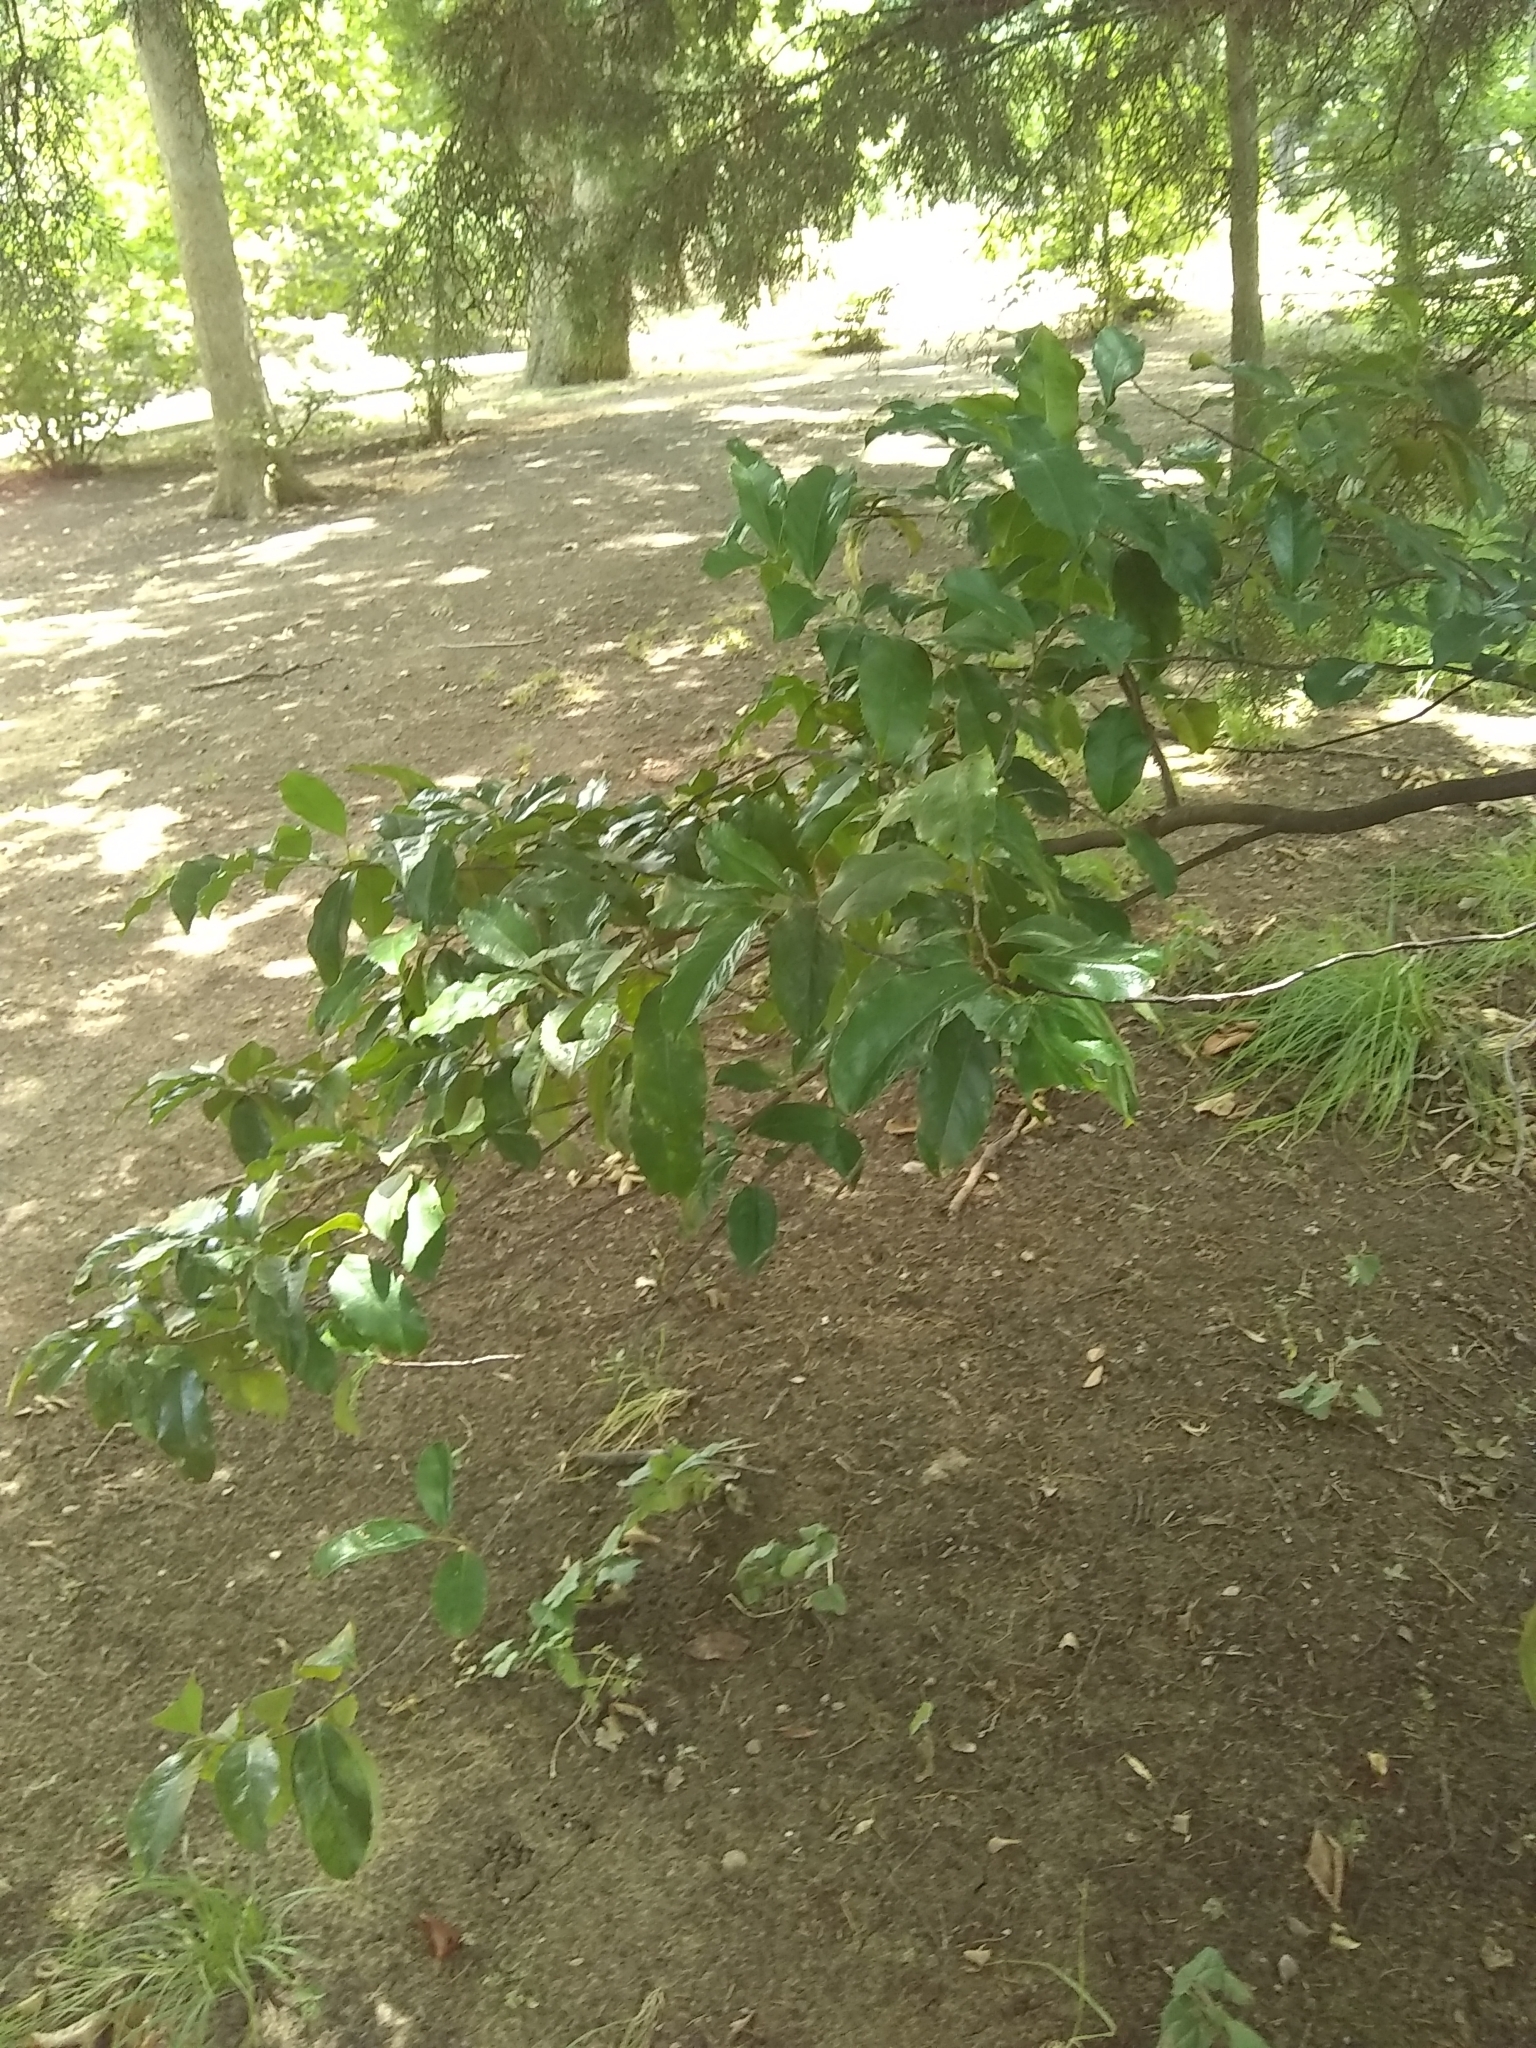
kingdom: Plantae
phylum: Tracheophyta
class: Magnoliopsida
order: Rosales
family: Rosaceae
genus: Prunus
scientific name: Prunus caroliniana
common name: Carolina laurel cherry
